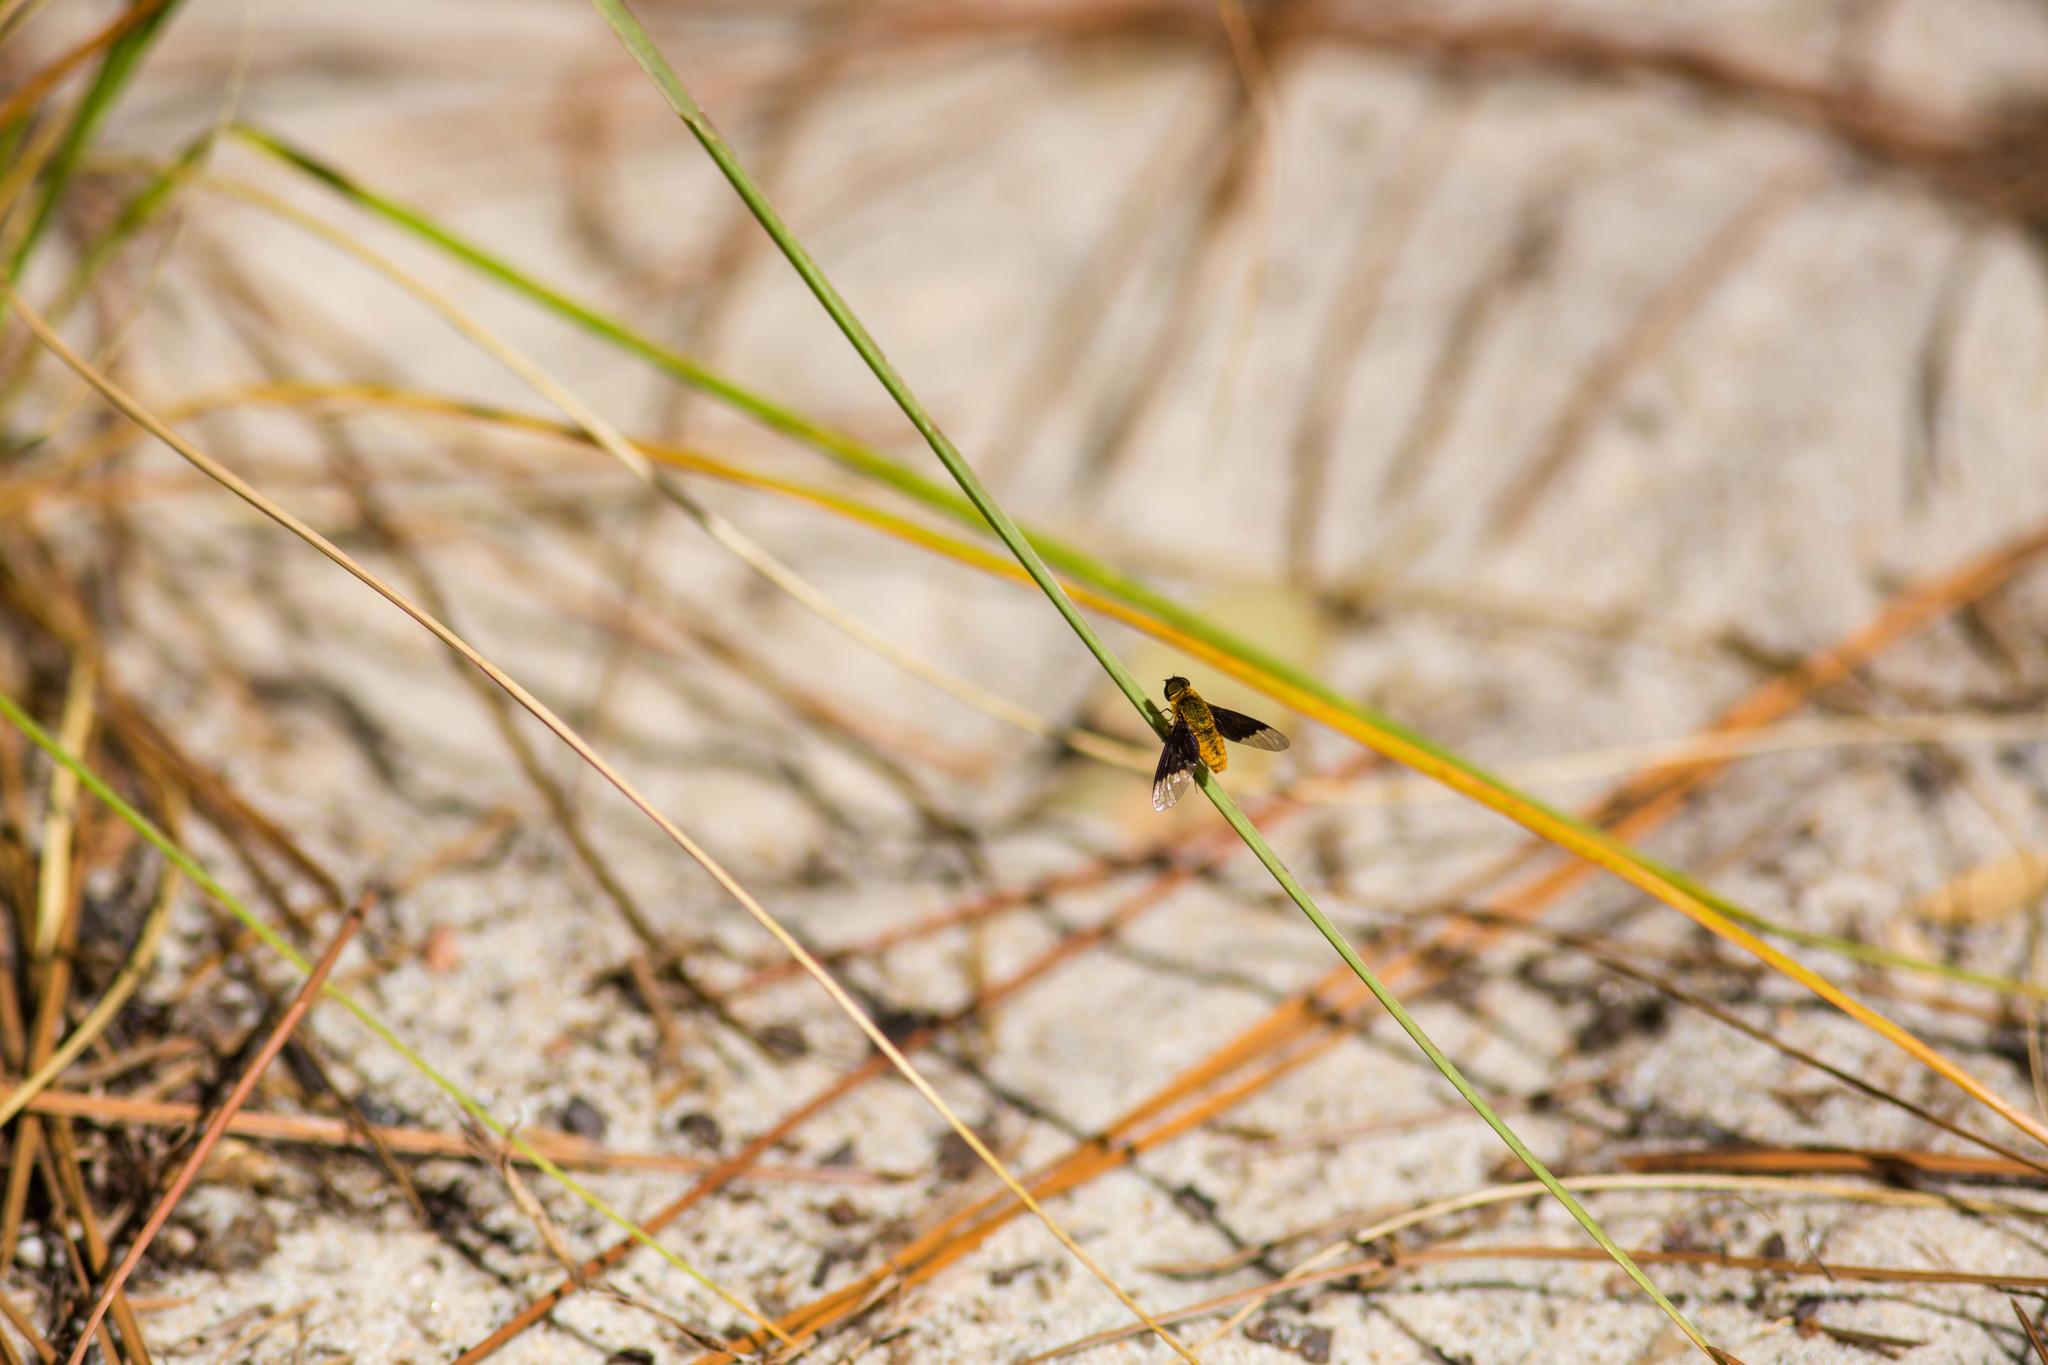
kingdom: Animalia
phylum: Arthropoda
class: Insecta
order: Diptera
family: Bombyliidae
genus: Chrysanthrax
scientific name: Chrysanthrax cypris
